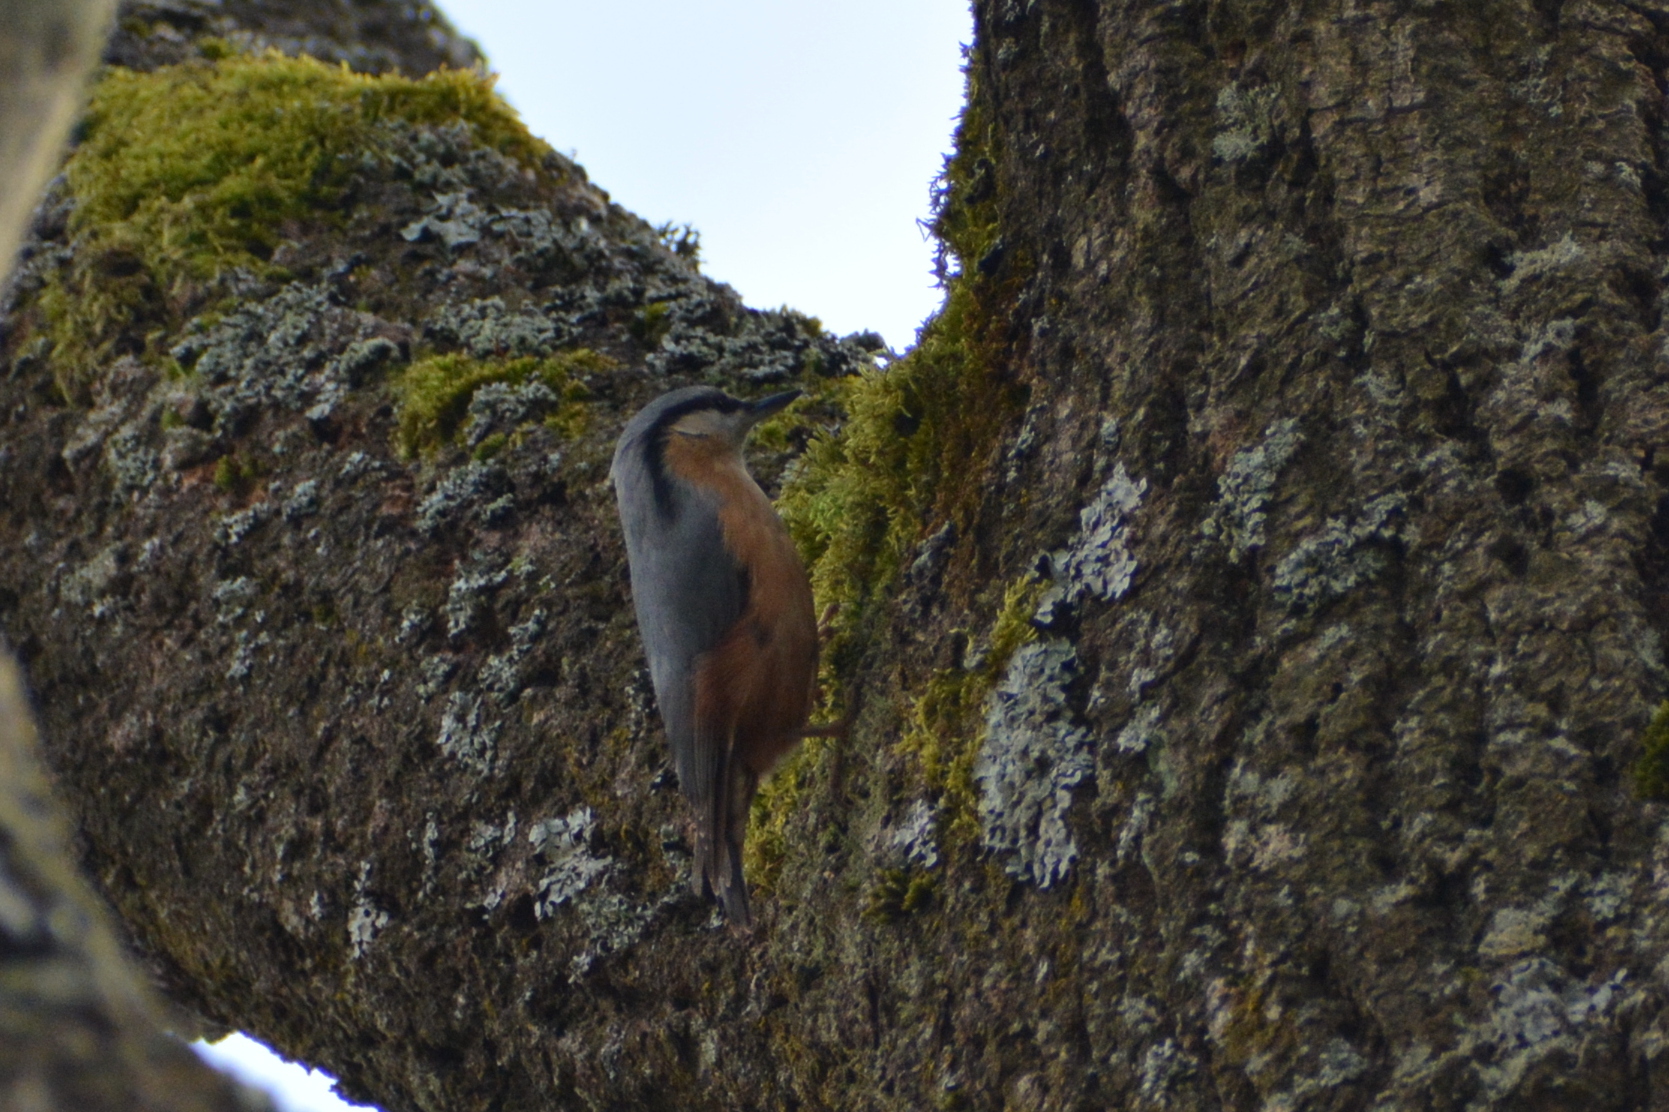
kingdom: Animalia
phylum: Chordata
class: Aves
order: Passeriformes
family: Sittidae
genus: Sitta
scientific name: Sitta europaea
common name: Eurasian nuthatch
